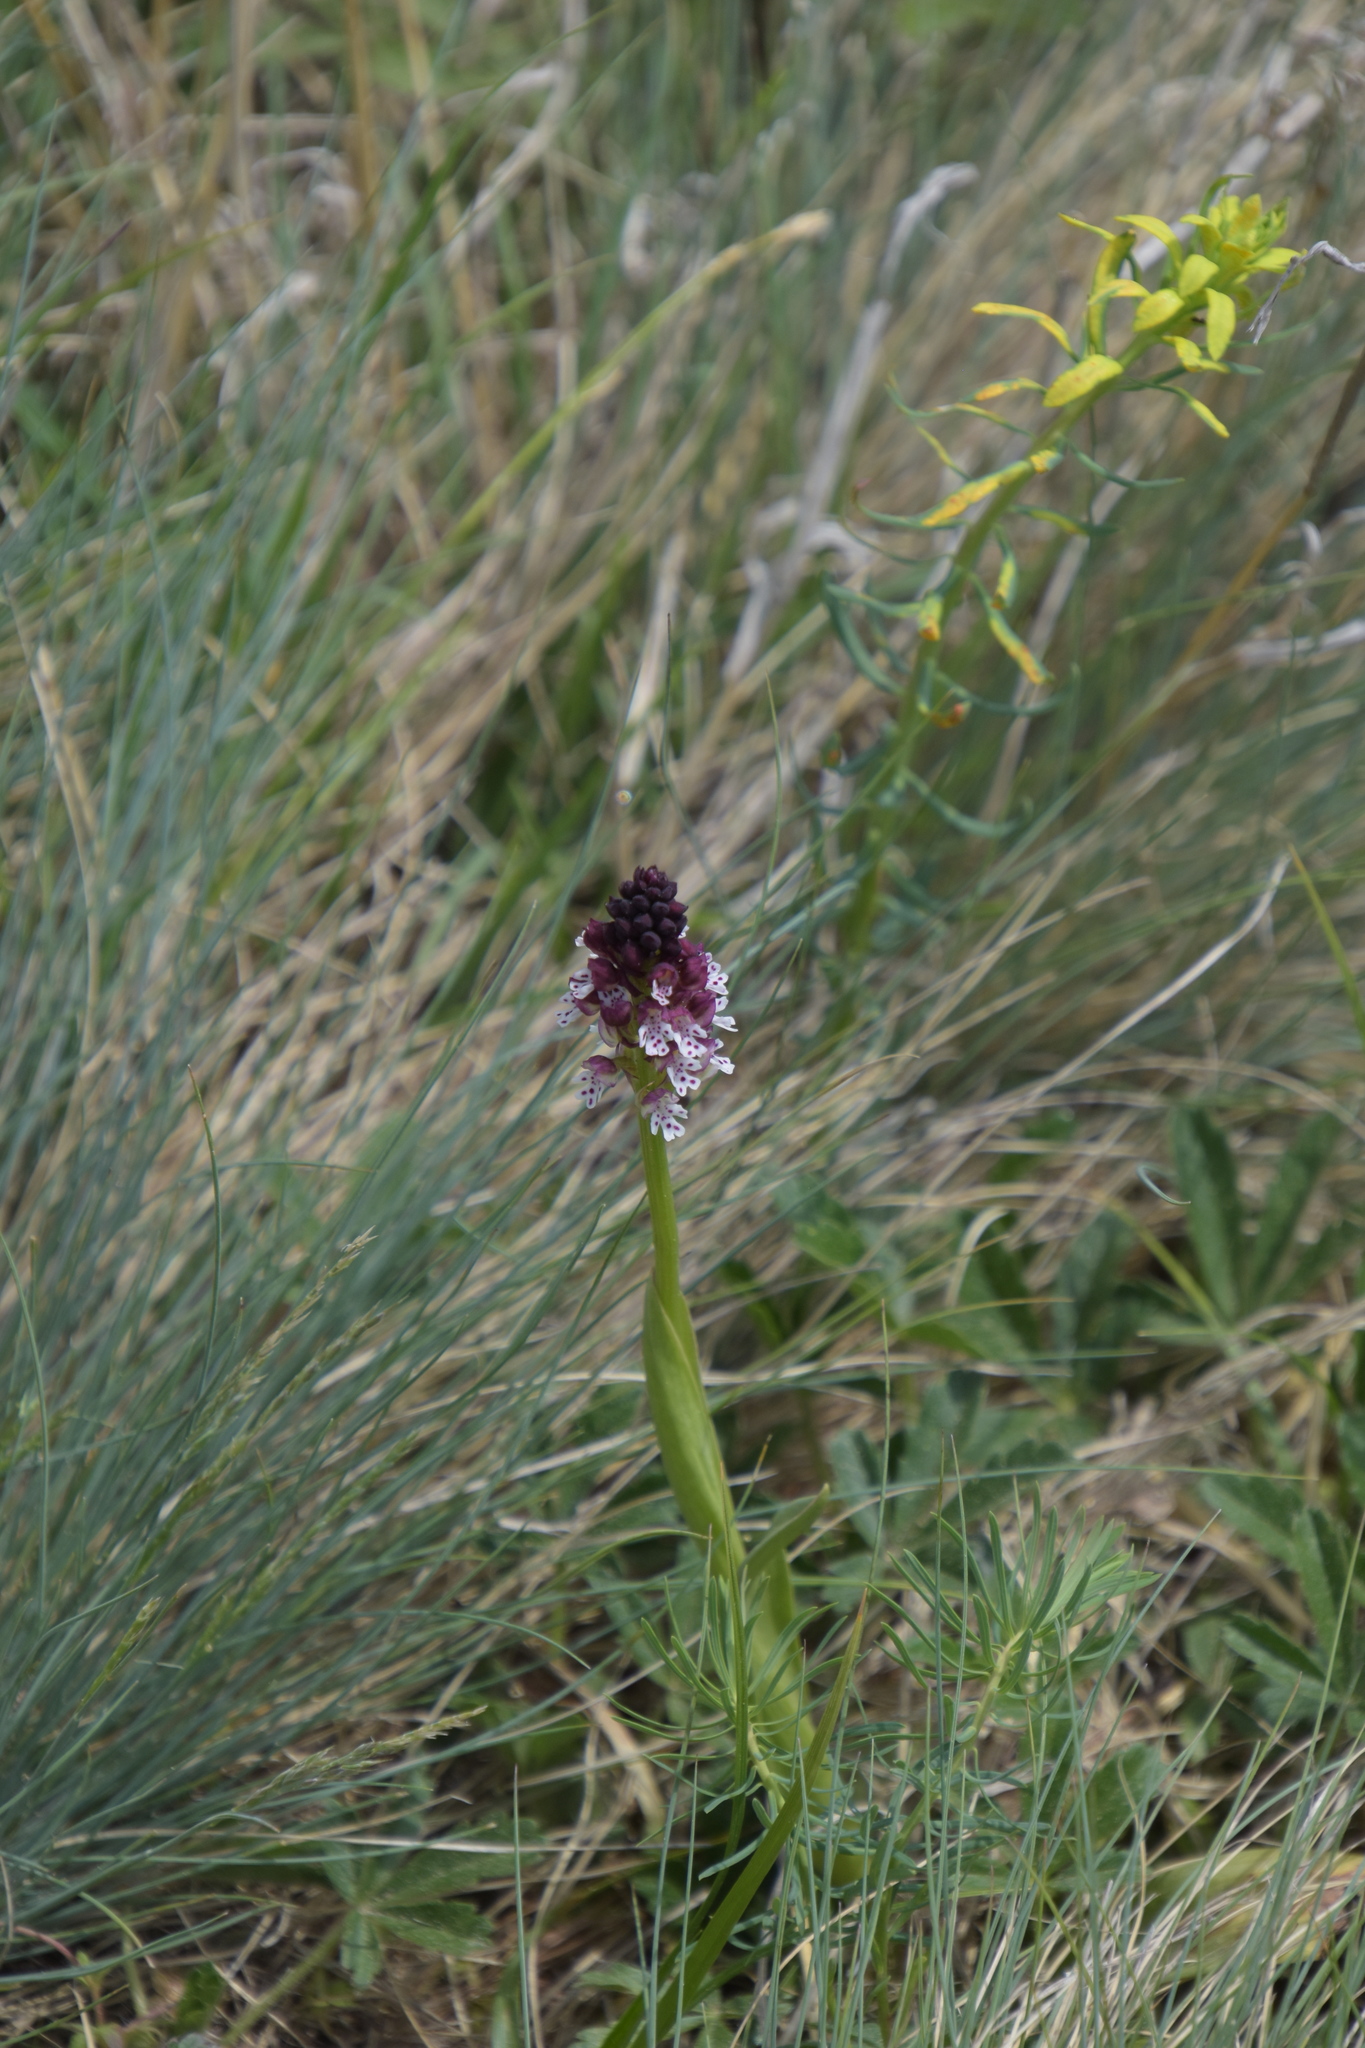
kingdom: Plantae
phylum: Tracheophyta
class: Liliopsida
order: Asparagales
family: Orchidaceae
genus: Neotinea
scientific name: Neotinea ustulata
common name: Burnt orchid
